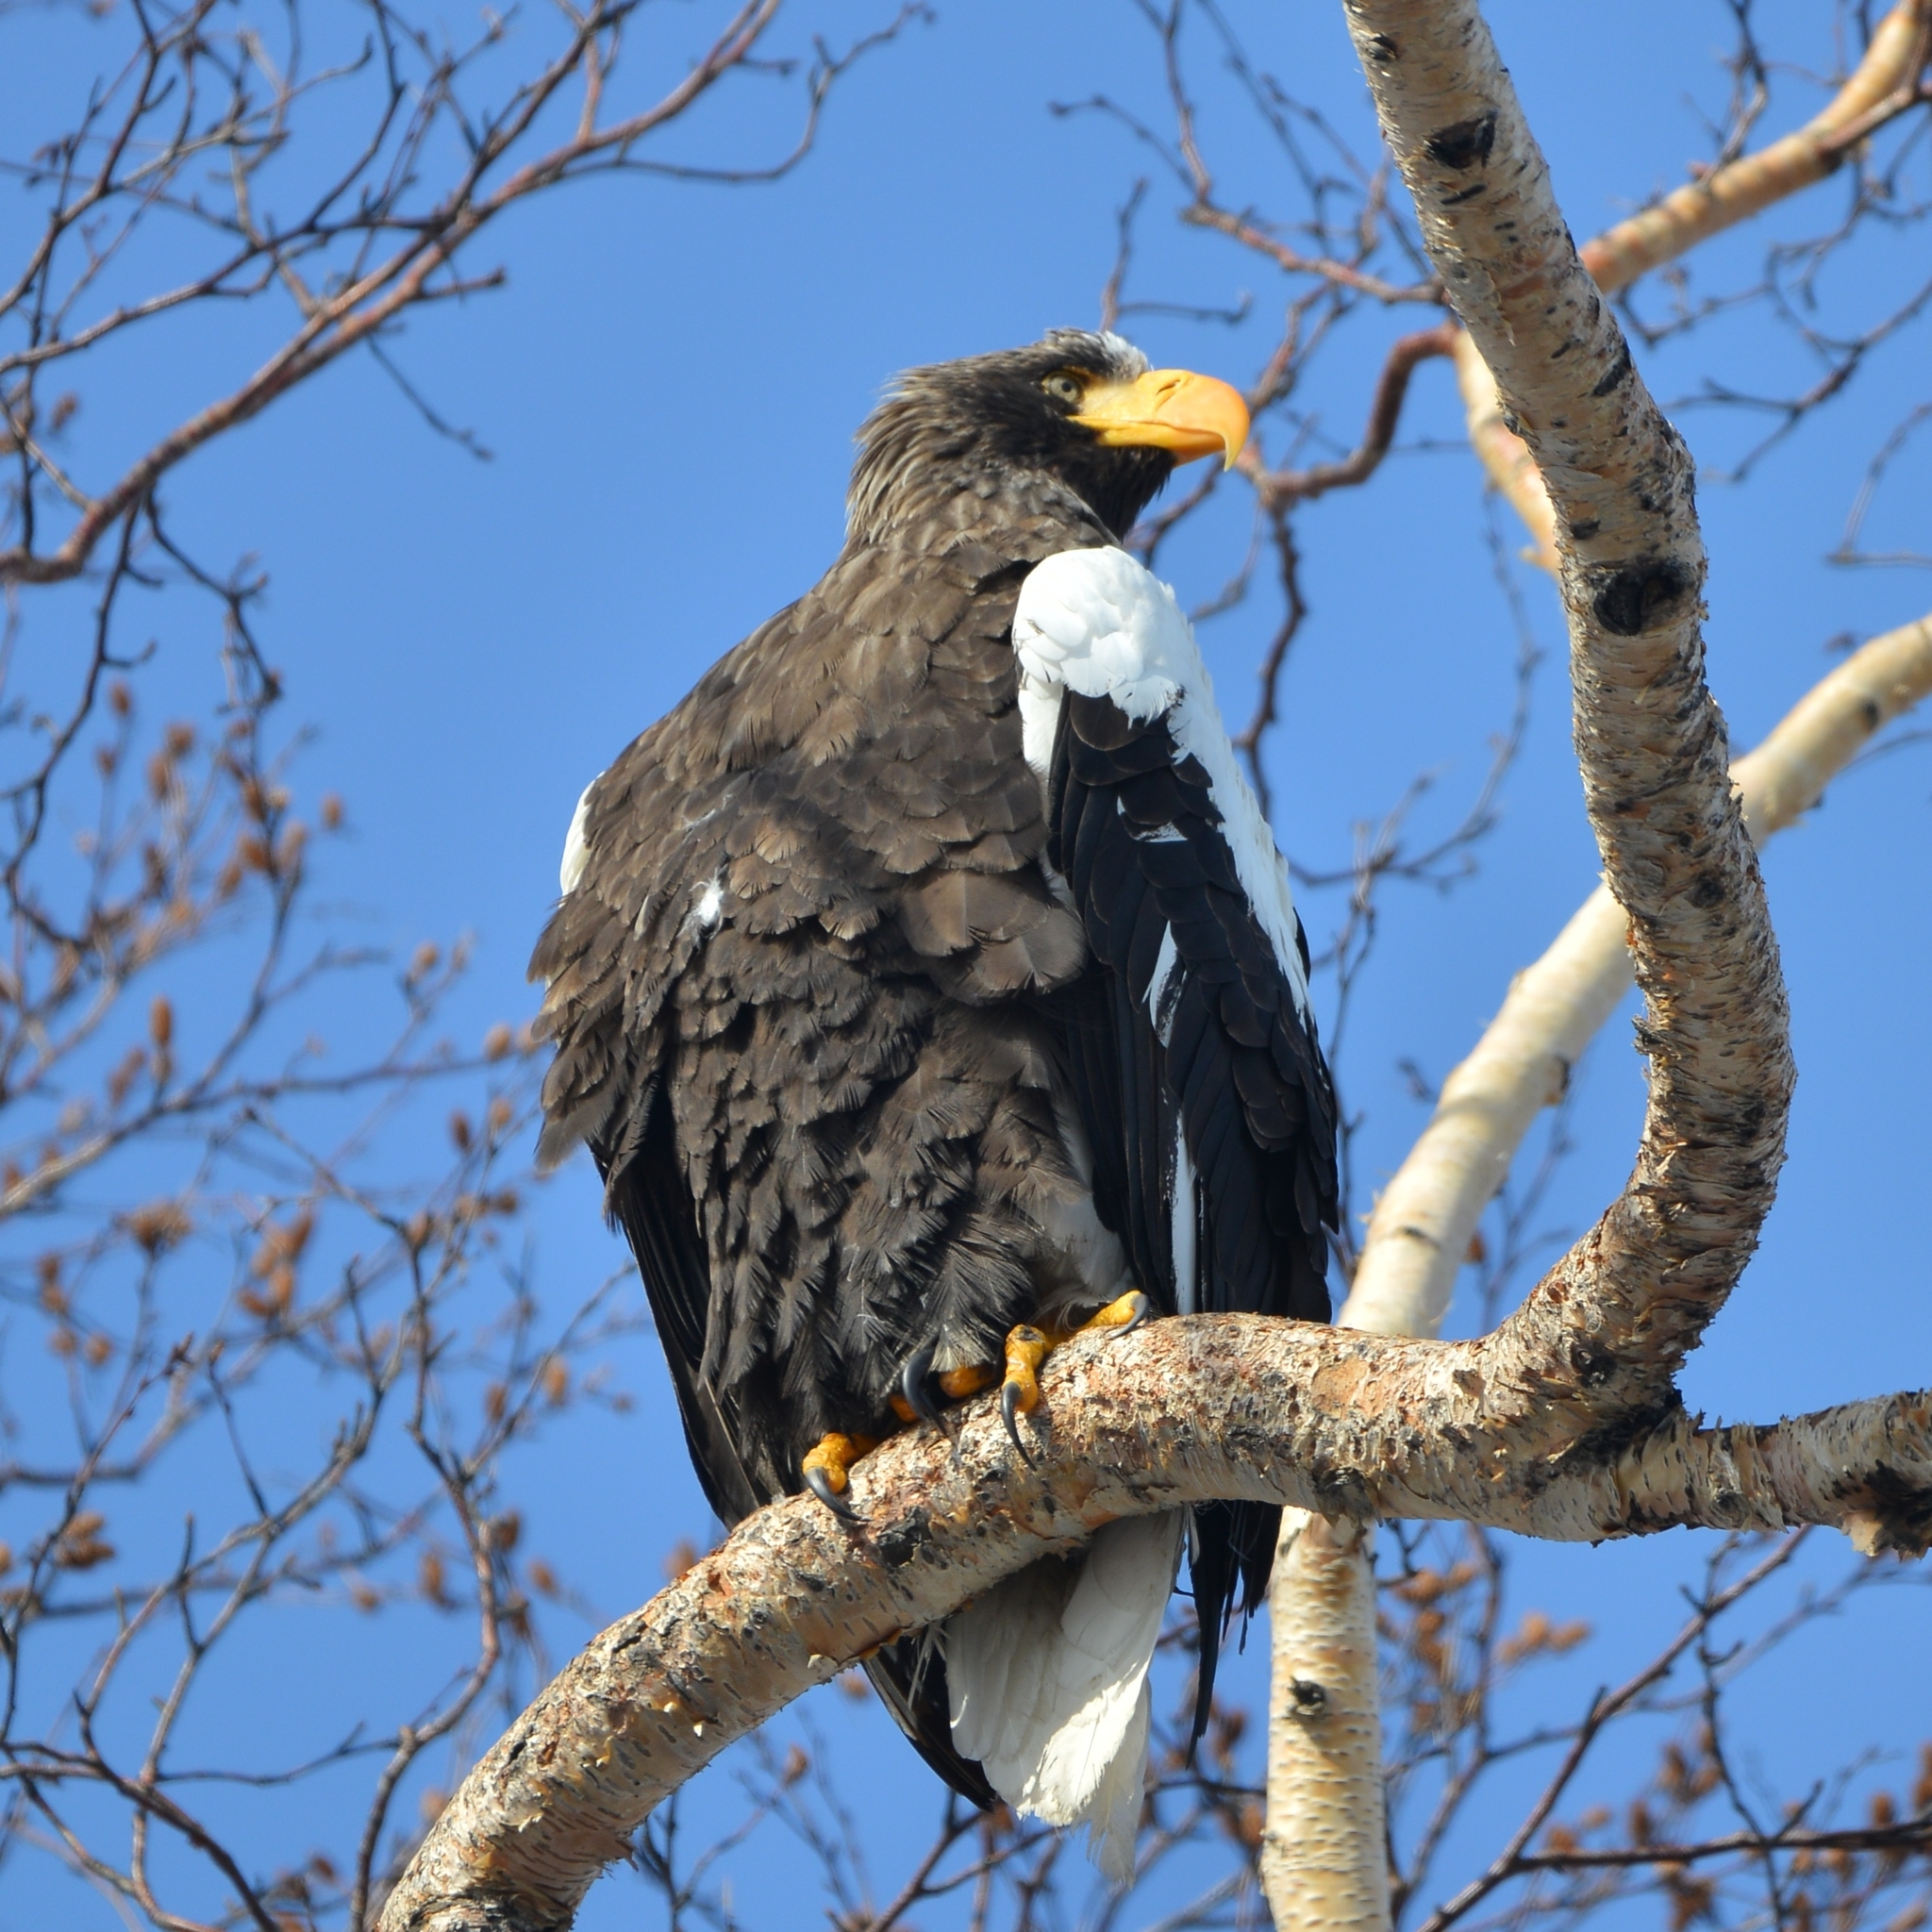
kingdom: Animalia
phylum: Chordata
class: Aves
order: Accipitriformes
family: Accipitridae
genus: Haliaeetus
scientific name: Haliaeetus pelagicus
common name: Steller's sea eagle
